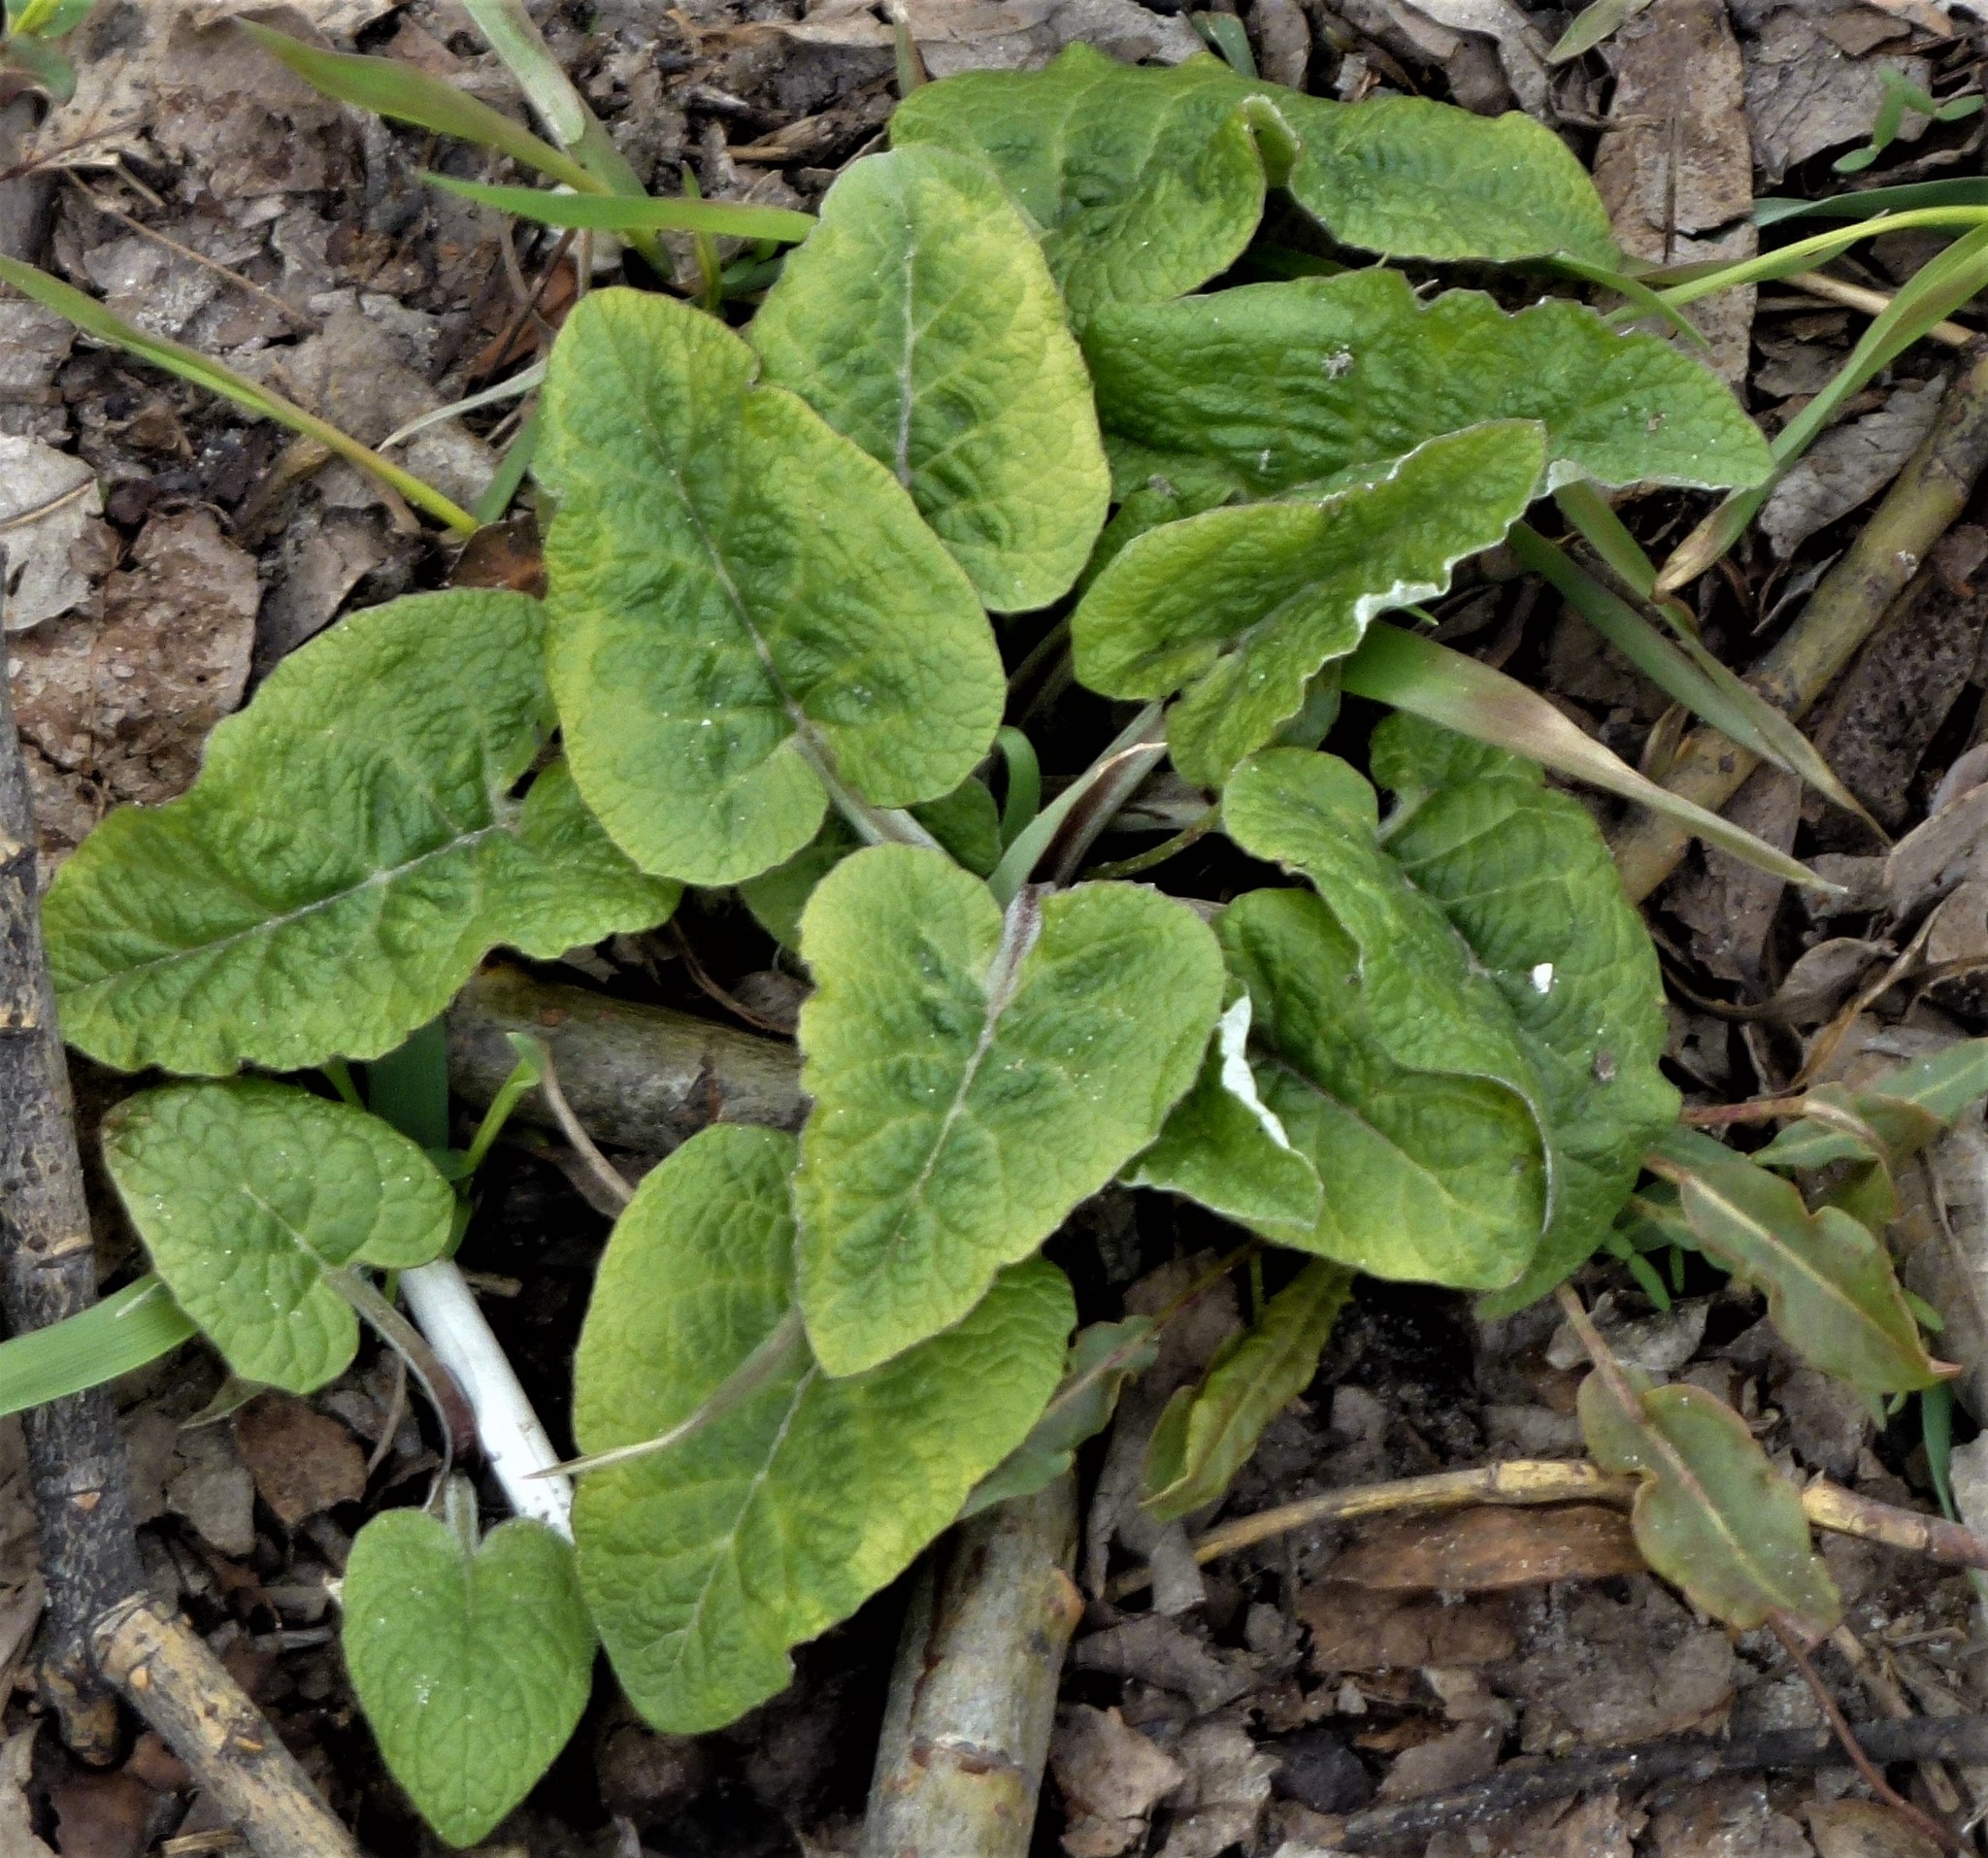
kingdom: Plantae
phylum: Tracheophyta
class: Magnoliopsida
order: Asterales
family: Asteraceae
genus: Arctium
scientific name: Arctium tomentosum
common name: Woolly burdock
